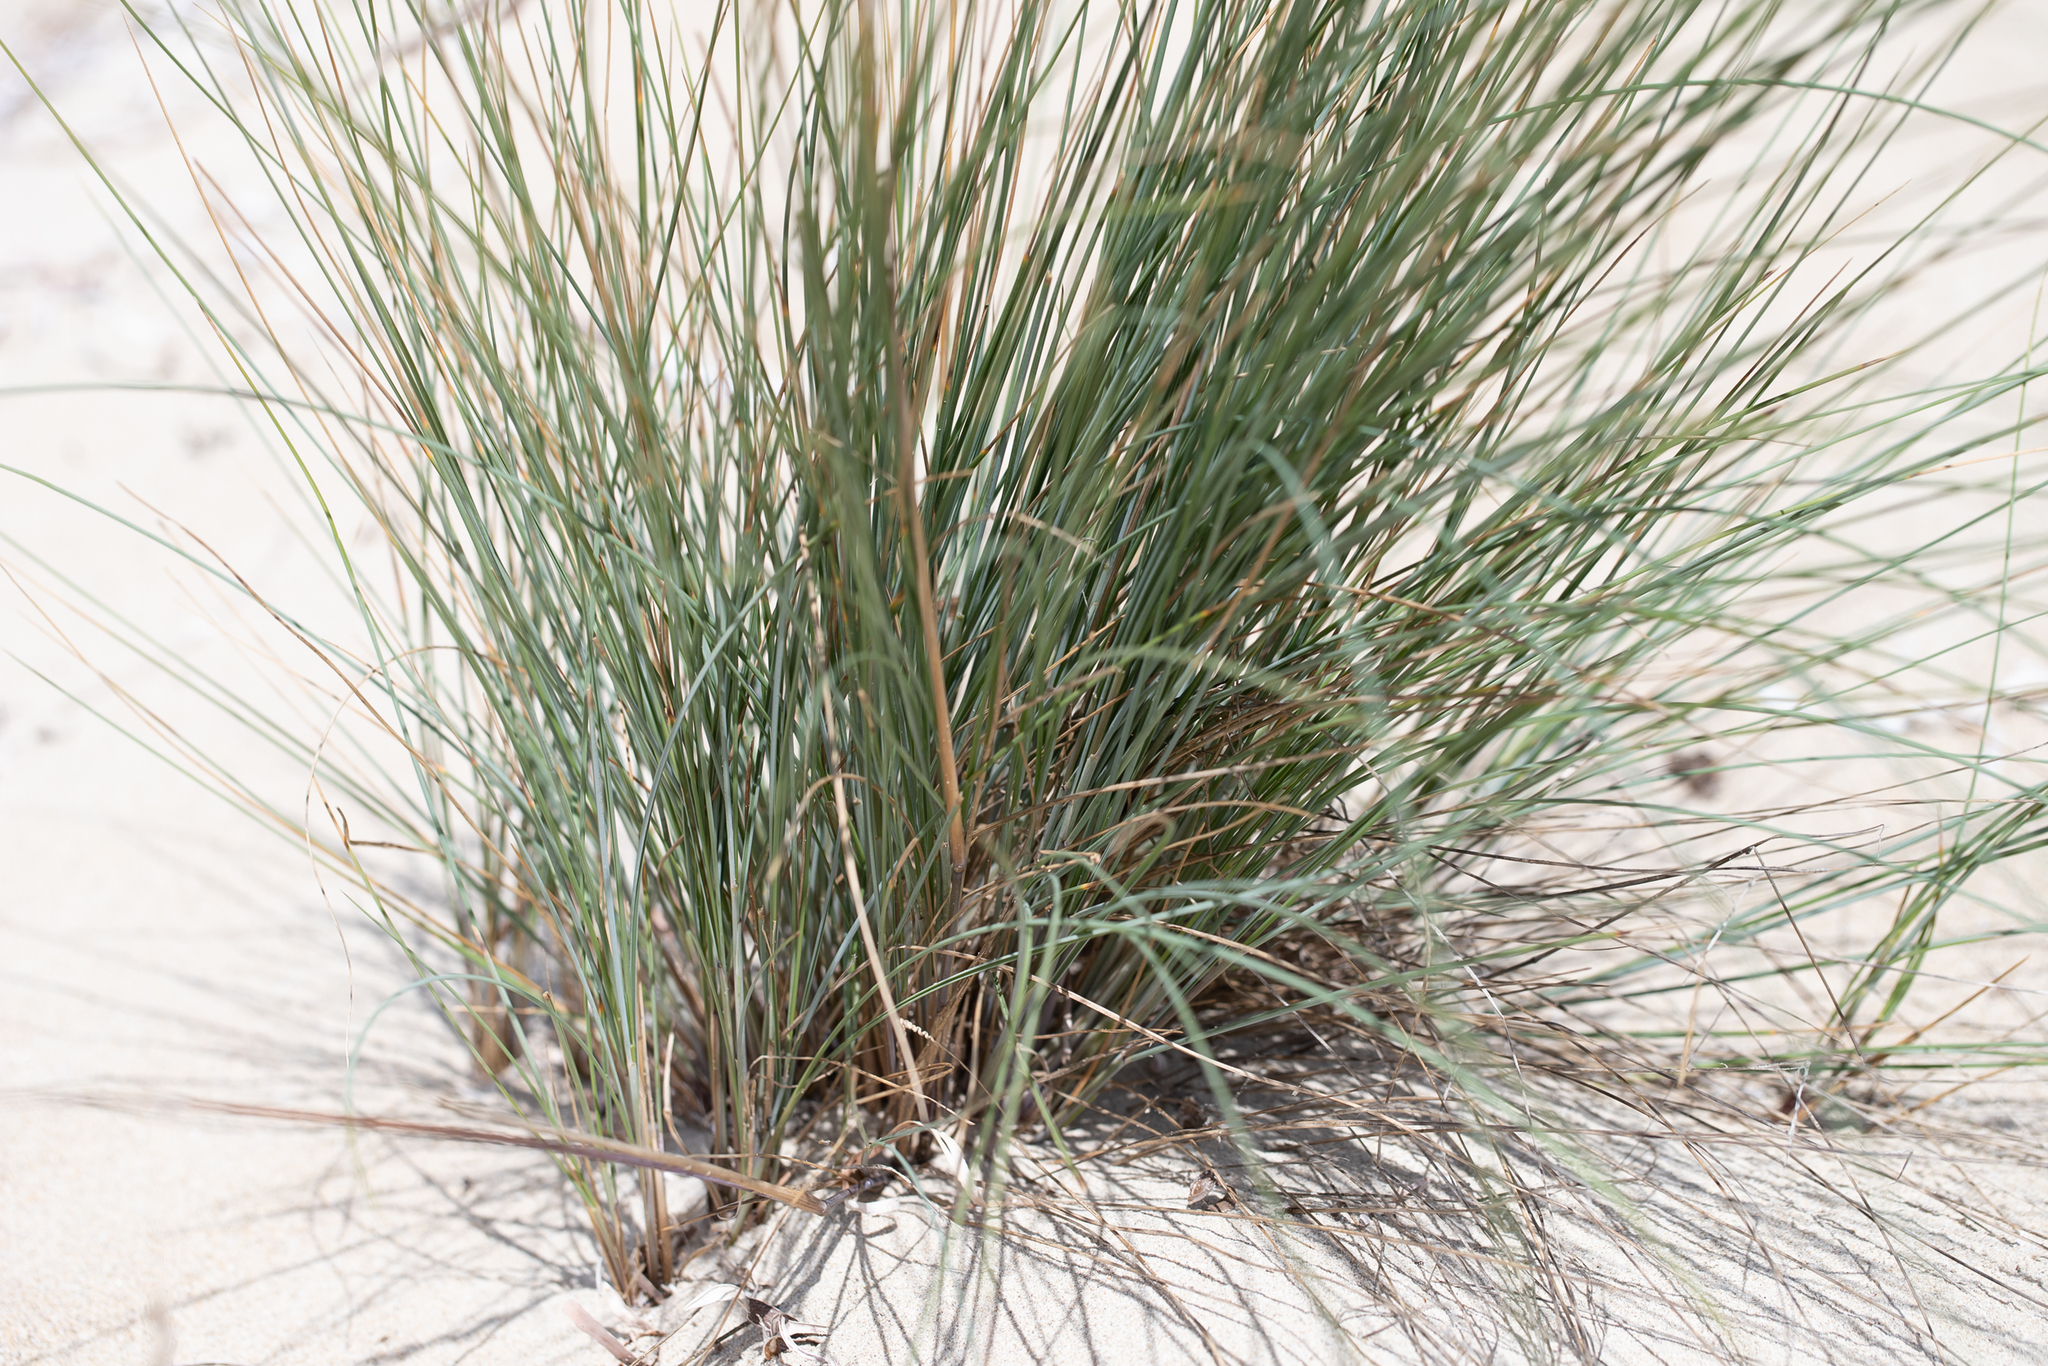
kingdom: Plantae
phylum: Tracheophyta
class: Liliopsida
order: Poales
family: Poaceae
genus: Poa
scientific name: Poa poiformis
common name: Tussock poa
